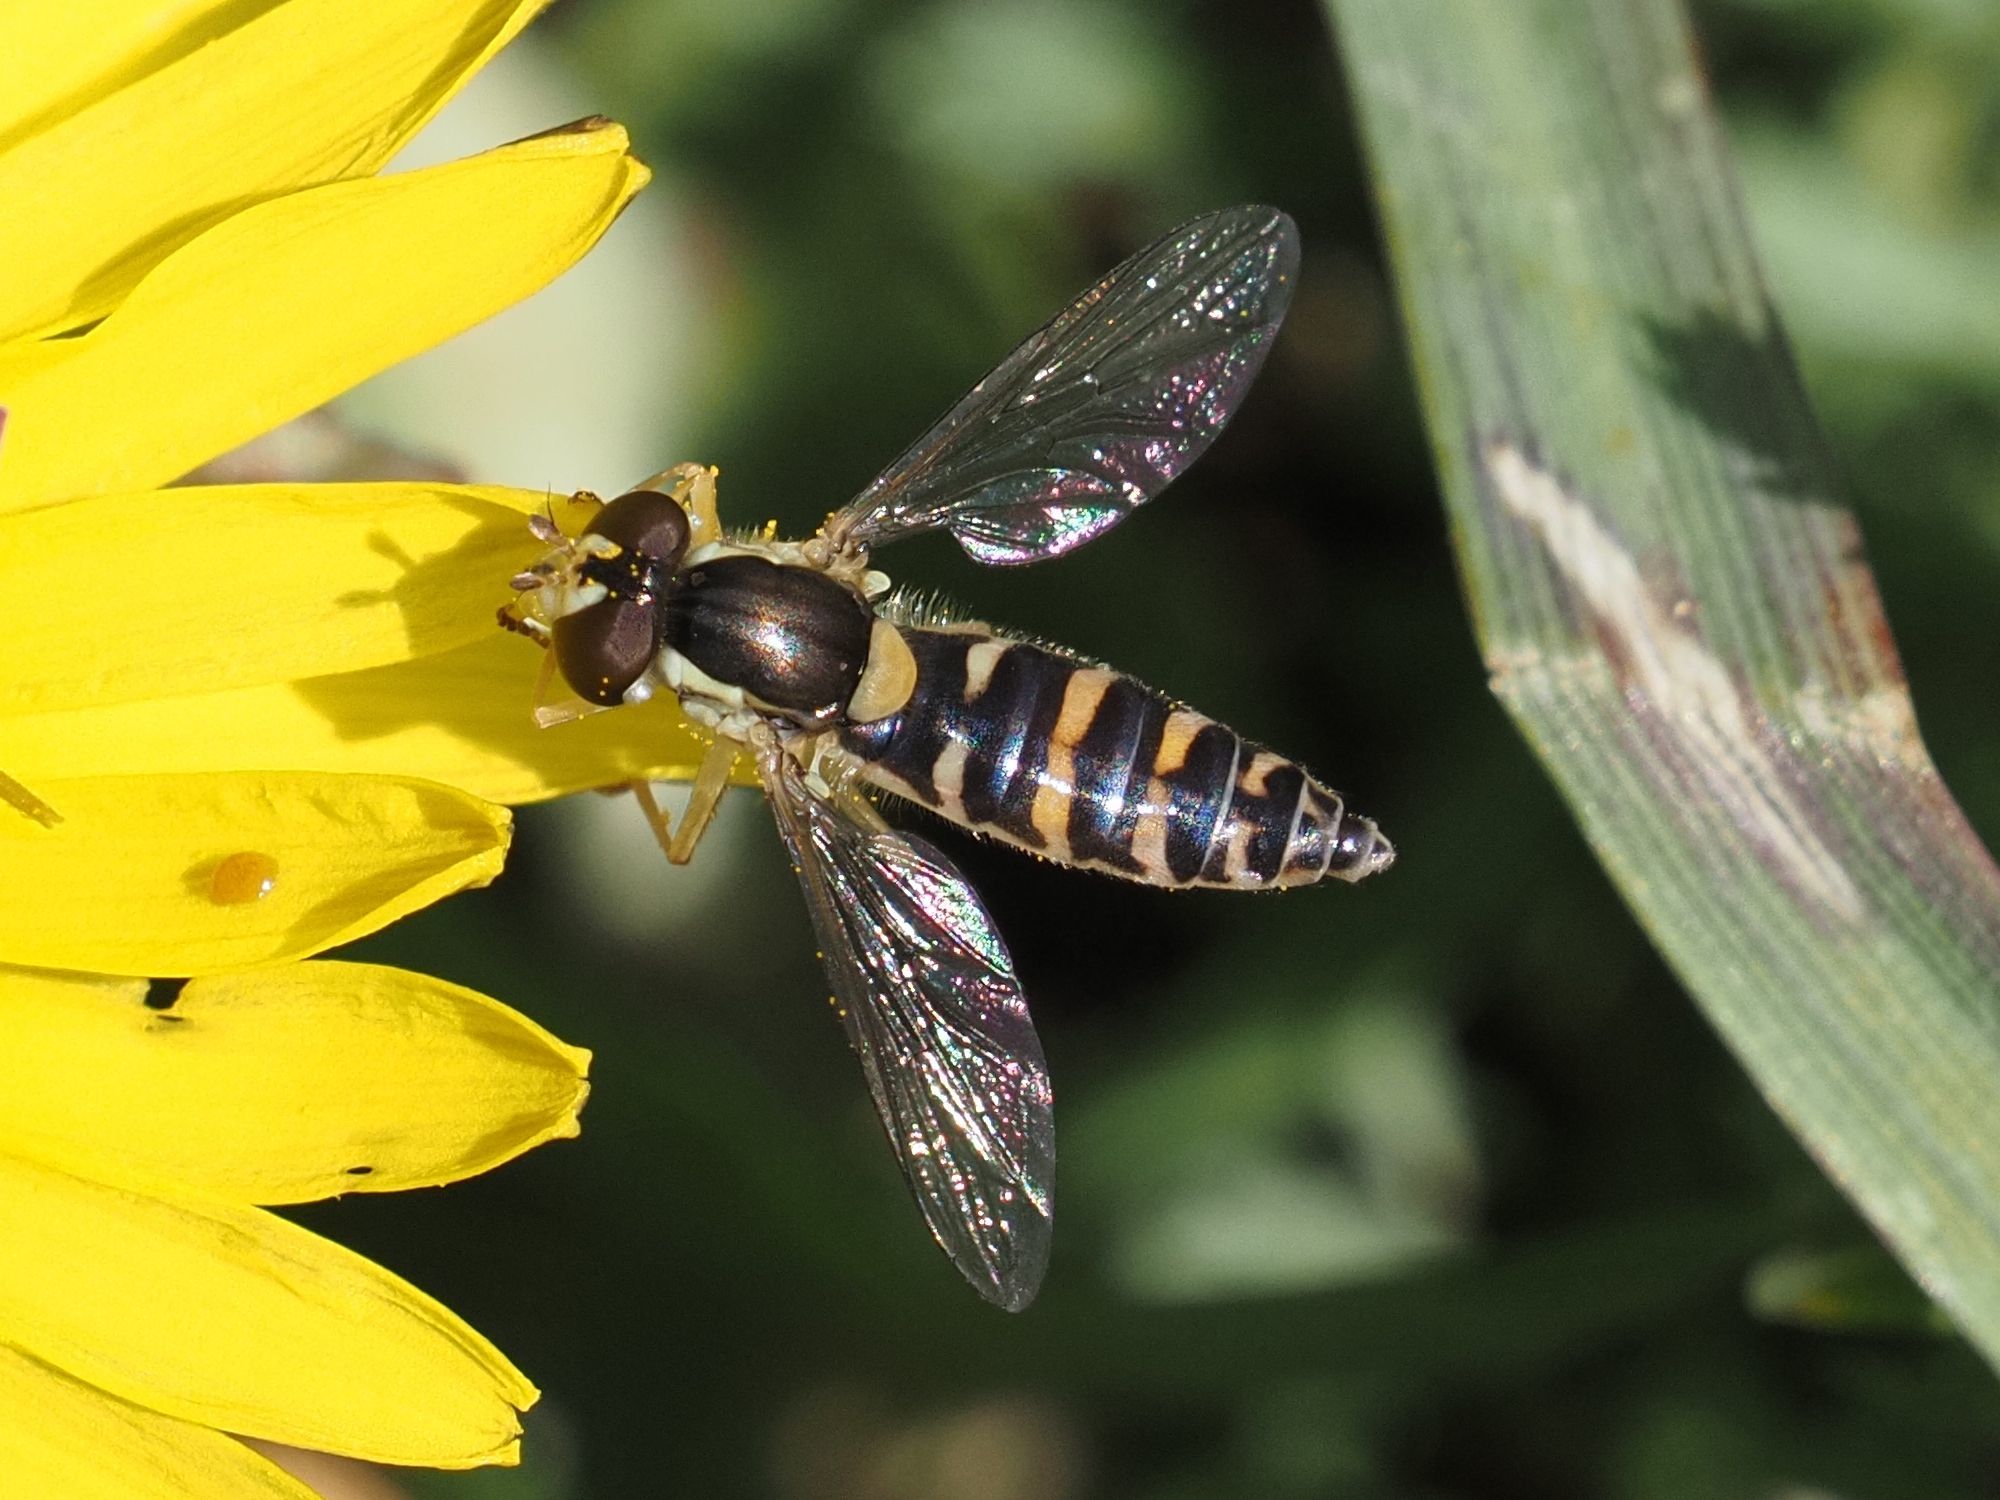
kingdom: Animalia
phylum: Arthropoda
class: Insecta
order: Diptera
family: Syrphidae
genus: Sphaerophoria
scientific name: Sphaerophoria
